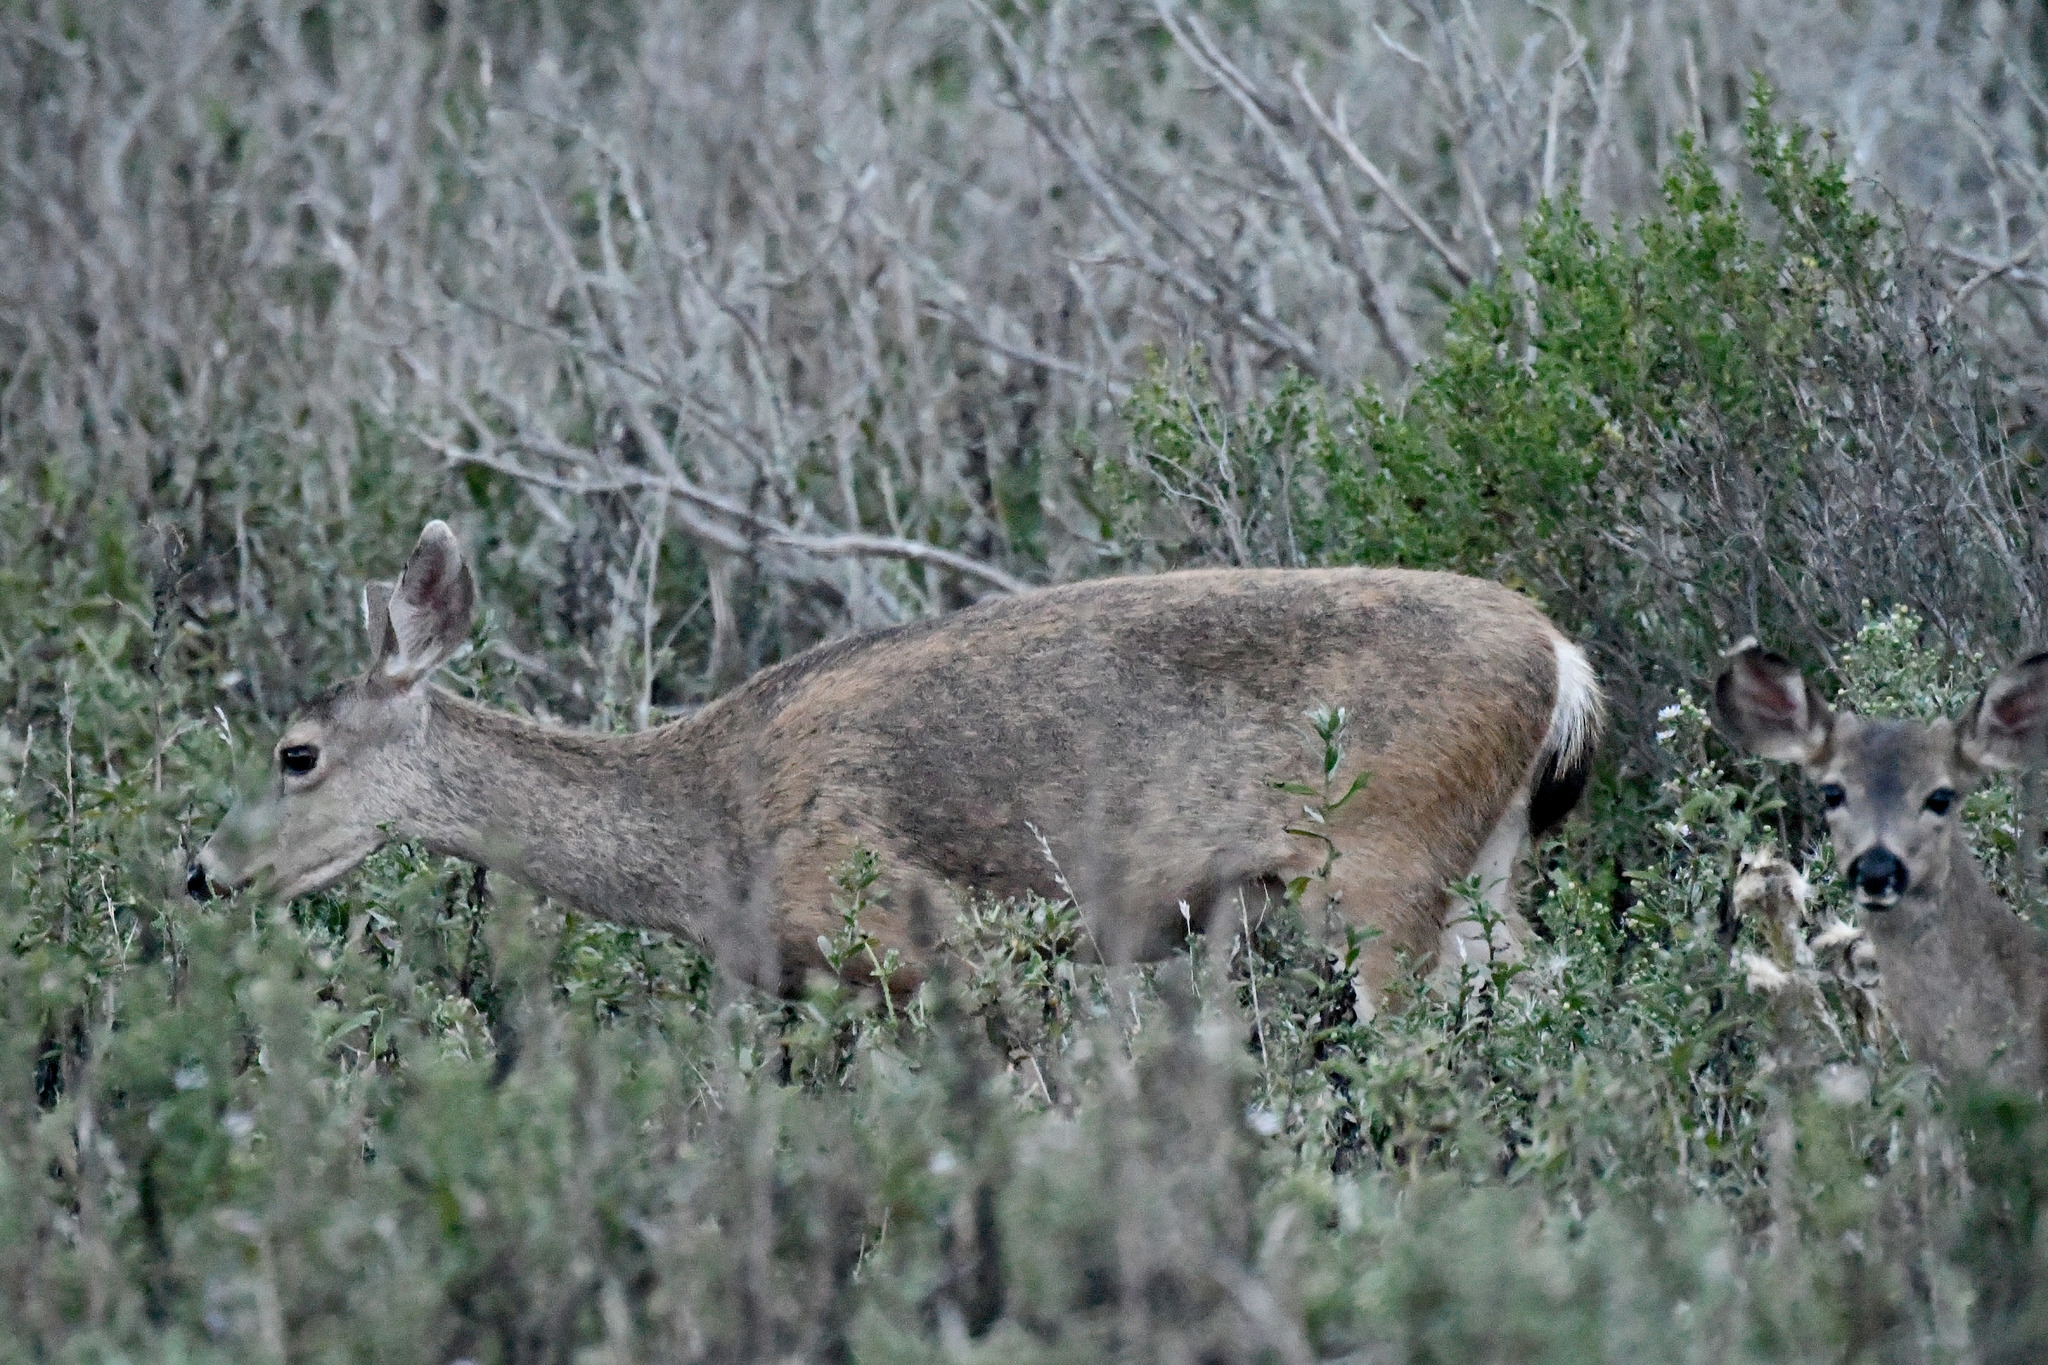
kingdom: Animalia
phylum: Chordata
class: Mammalia
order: Artiodactyla
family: Cervidae
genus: Odocoileus
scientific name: Odocoileus hemionus
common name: Mule deer
